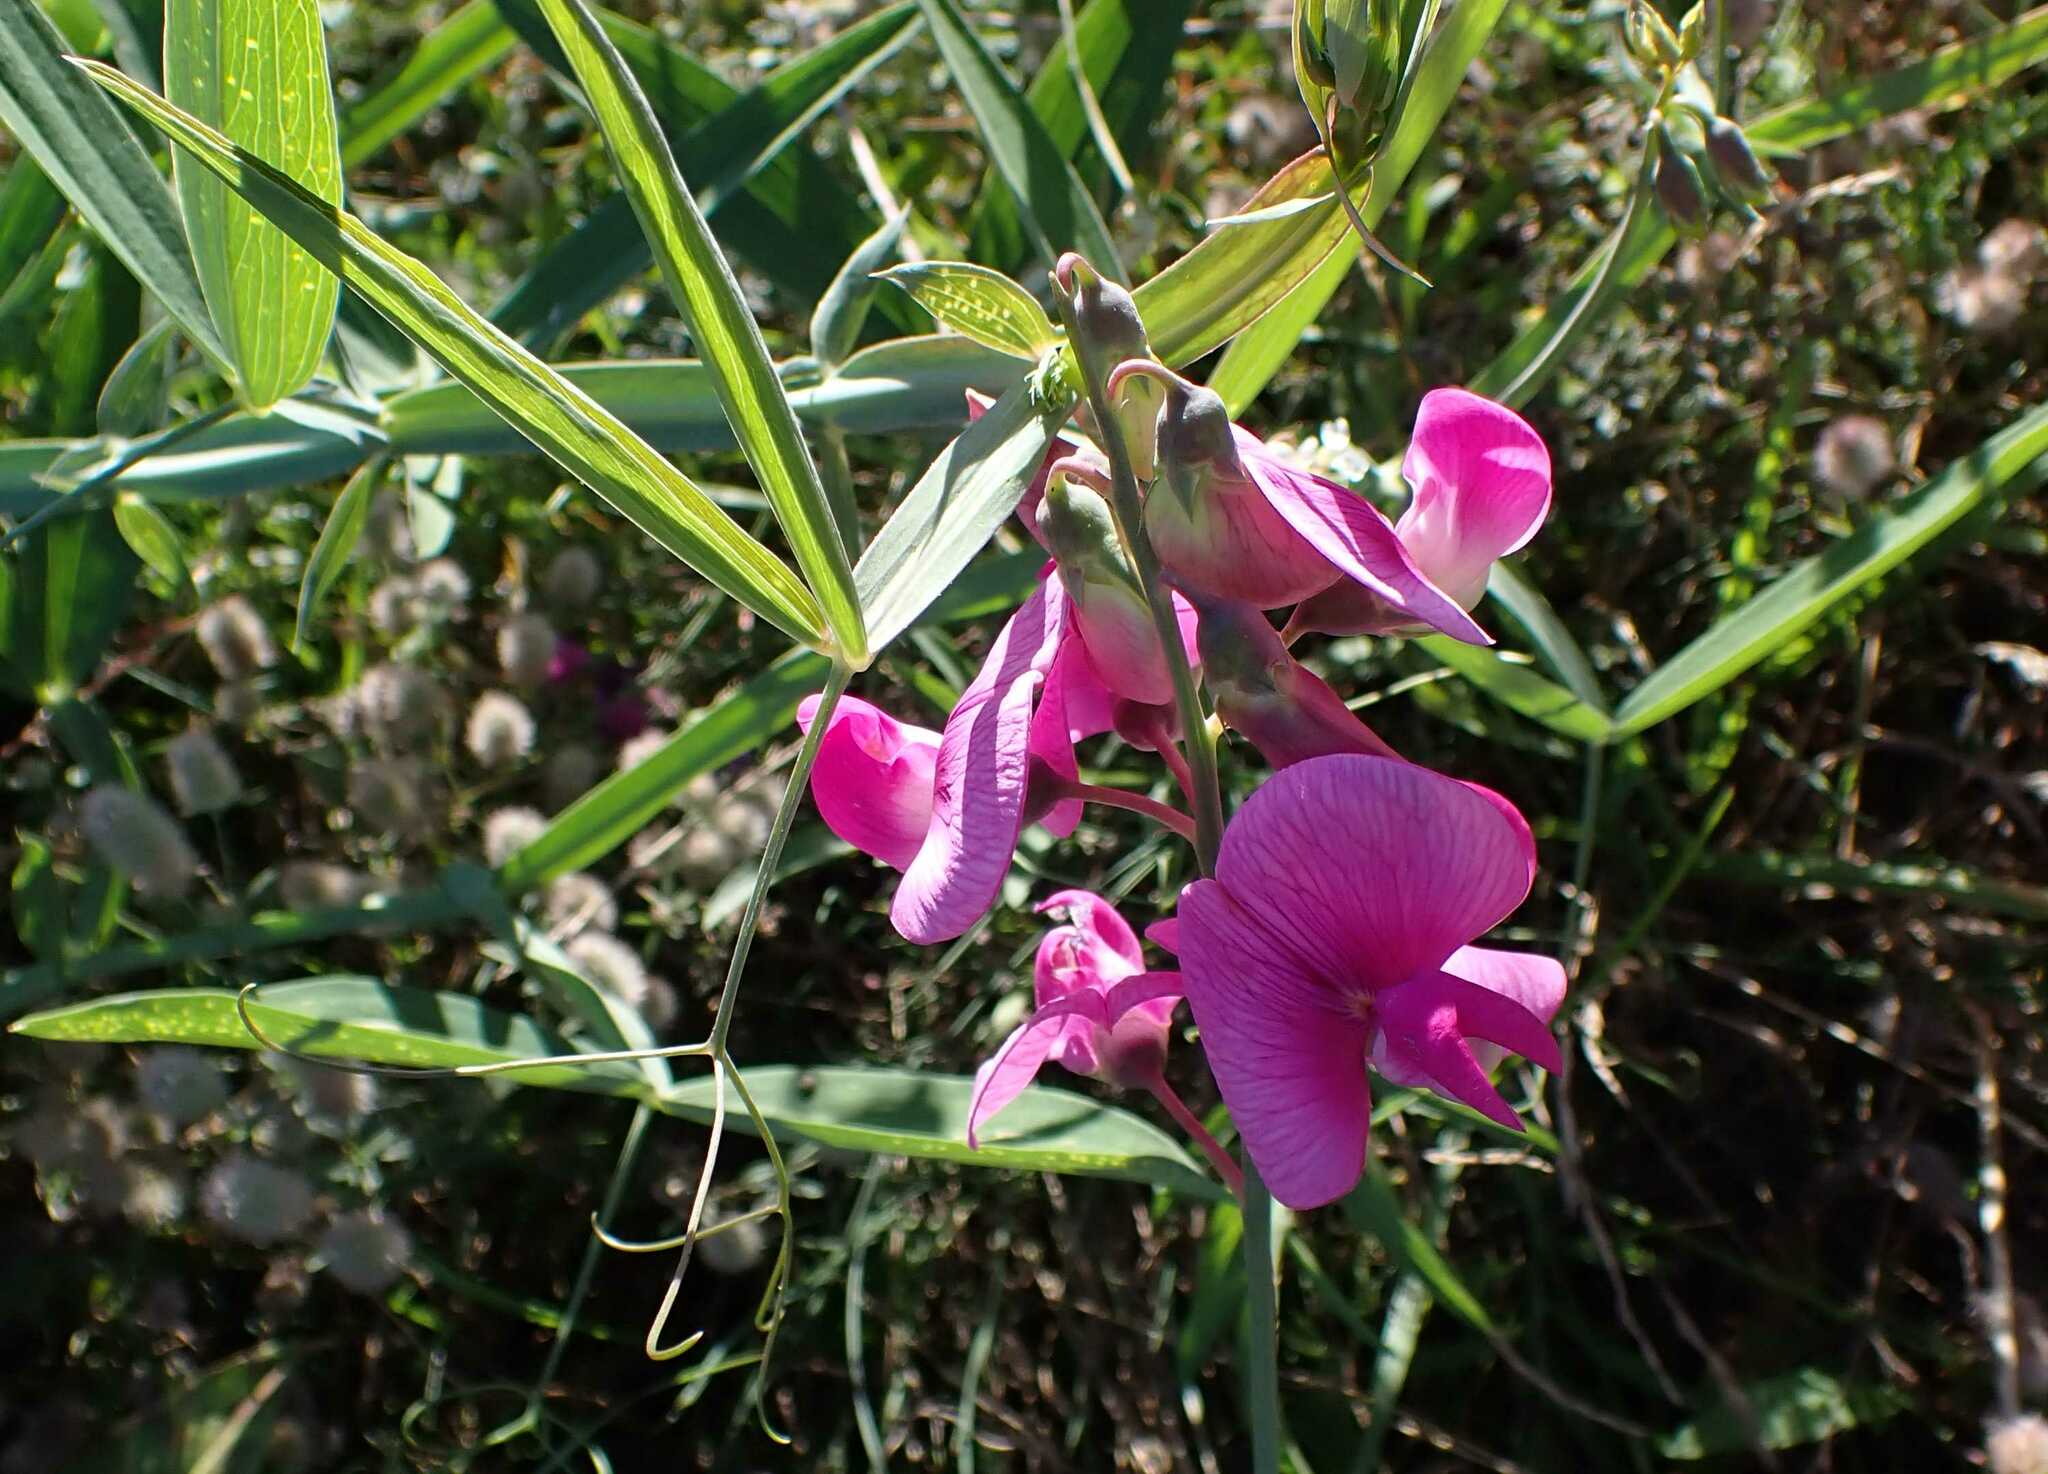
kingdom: Plantae
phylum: Tracheophyta
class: Magnoliopsida
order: Fabales
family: Fabaceae
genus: Lathyrus
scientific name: Lathyrus latifolius
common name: Perennial pea
